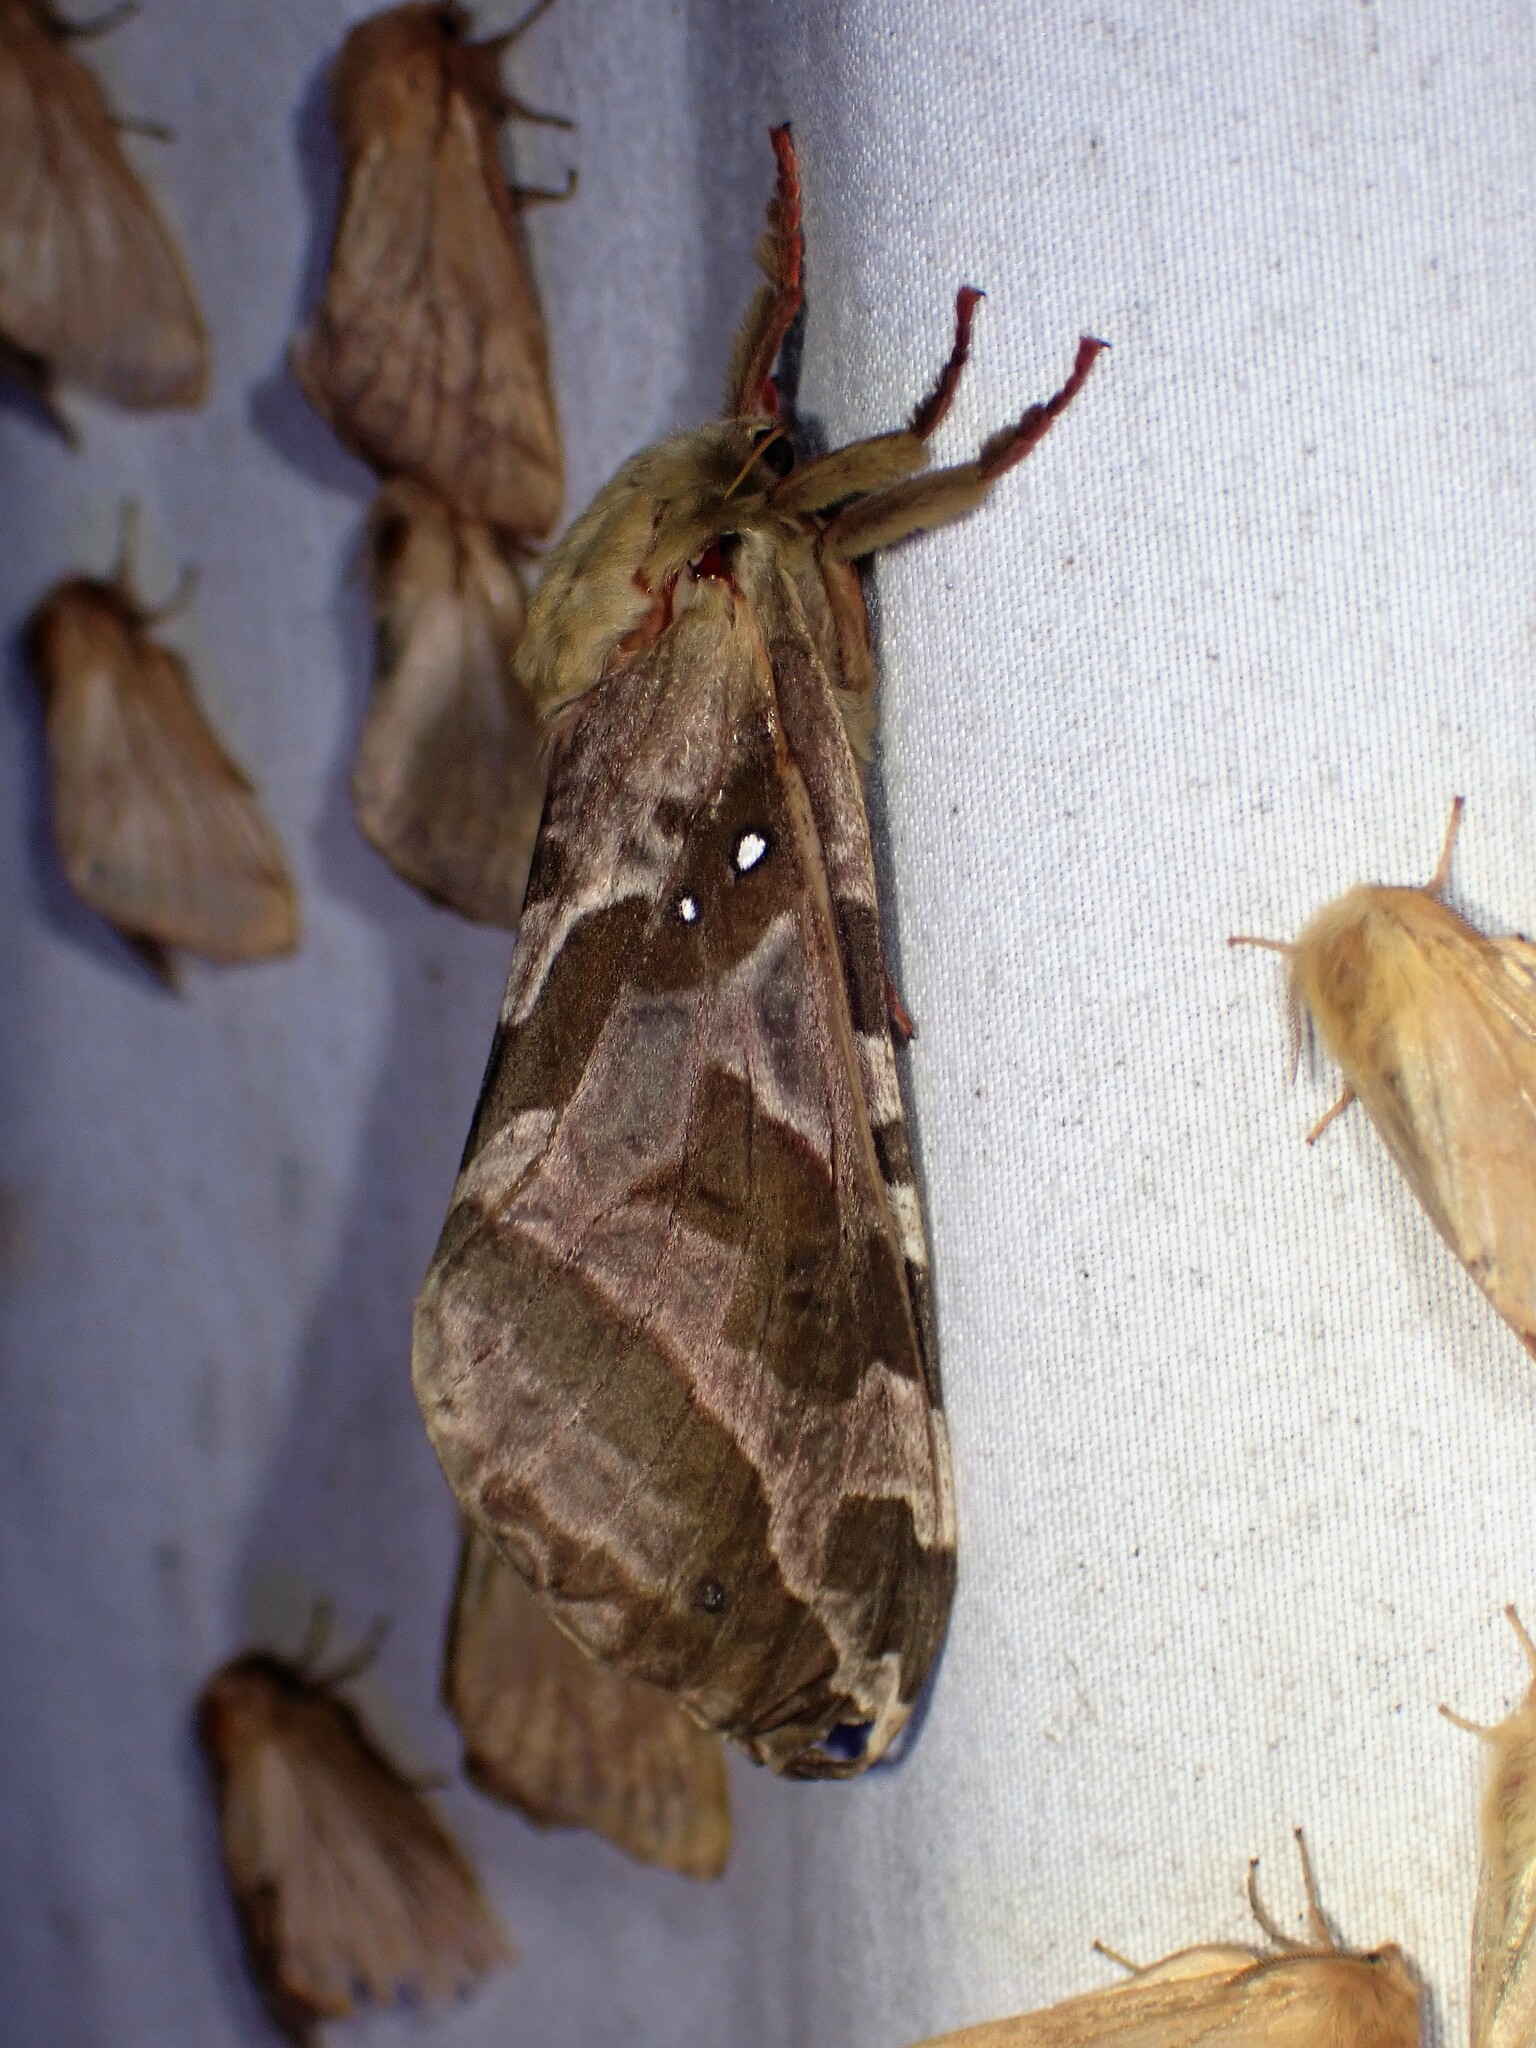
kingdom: Animalia
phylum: Arthropoda
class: Insecta
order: Lepidoptera
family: Hepialidae
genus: Sthenopis
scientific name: Sthenopis purpurascens
